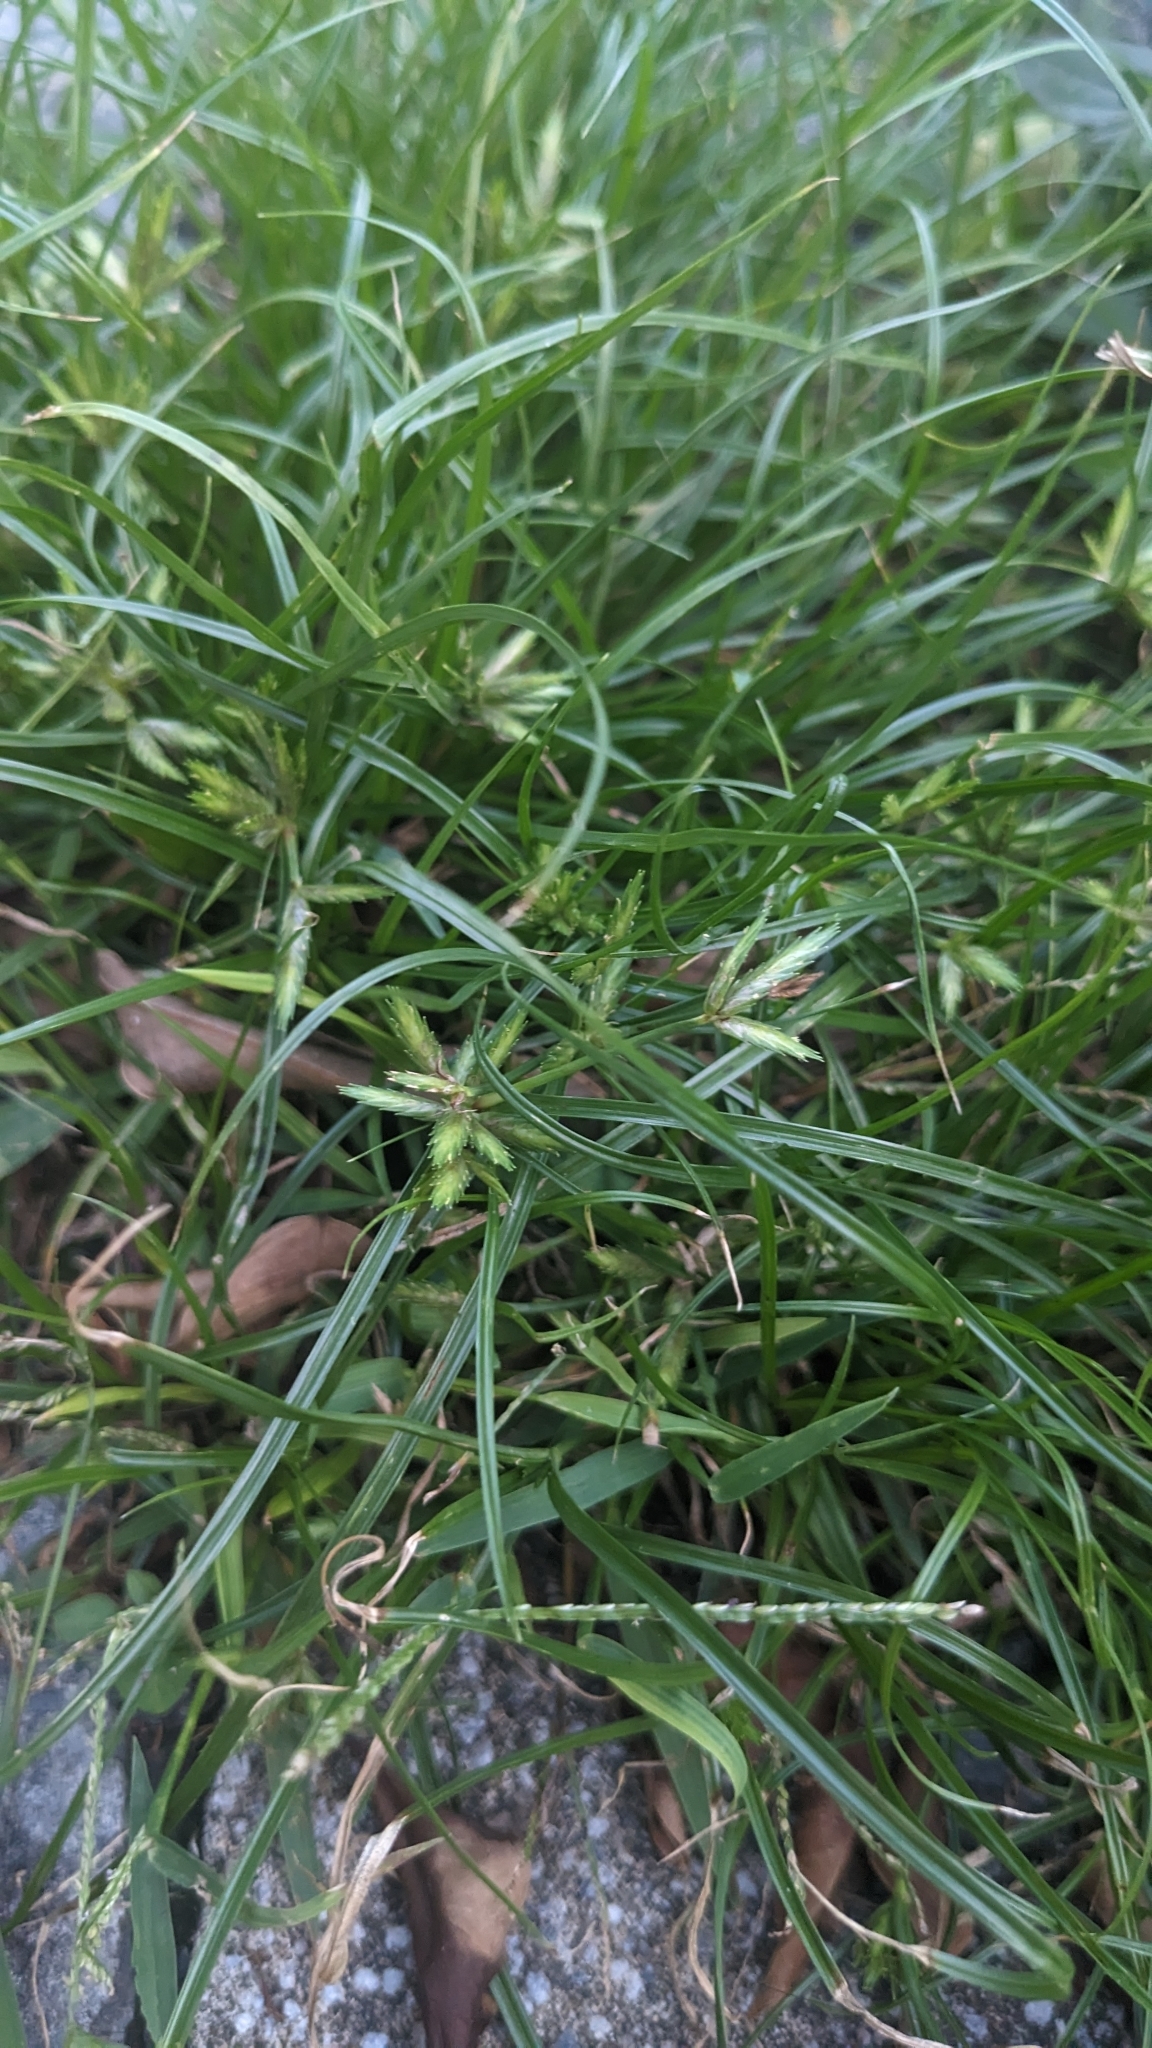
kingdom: Plantae
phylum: Tracheophyta
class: Liliopsida
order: Poales
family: Cyperaceae
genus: Cyperus
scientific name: Cyperus compressus
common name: Poorland flatsedge
